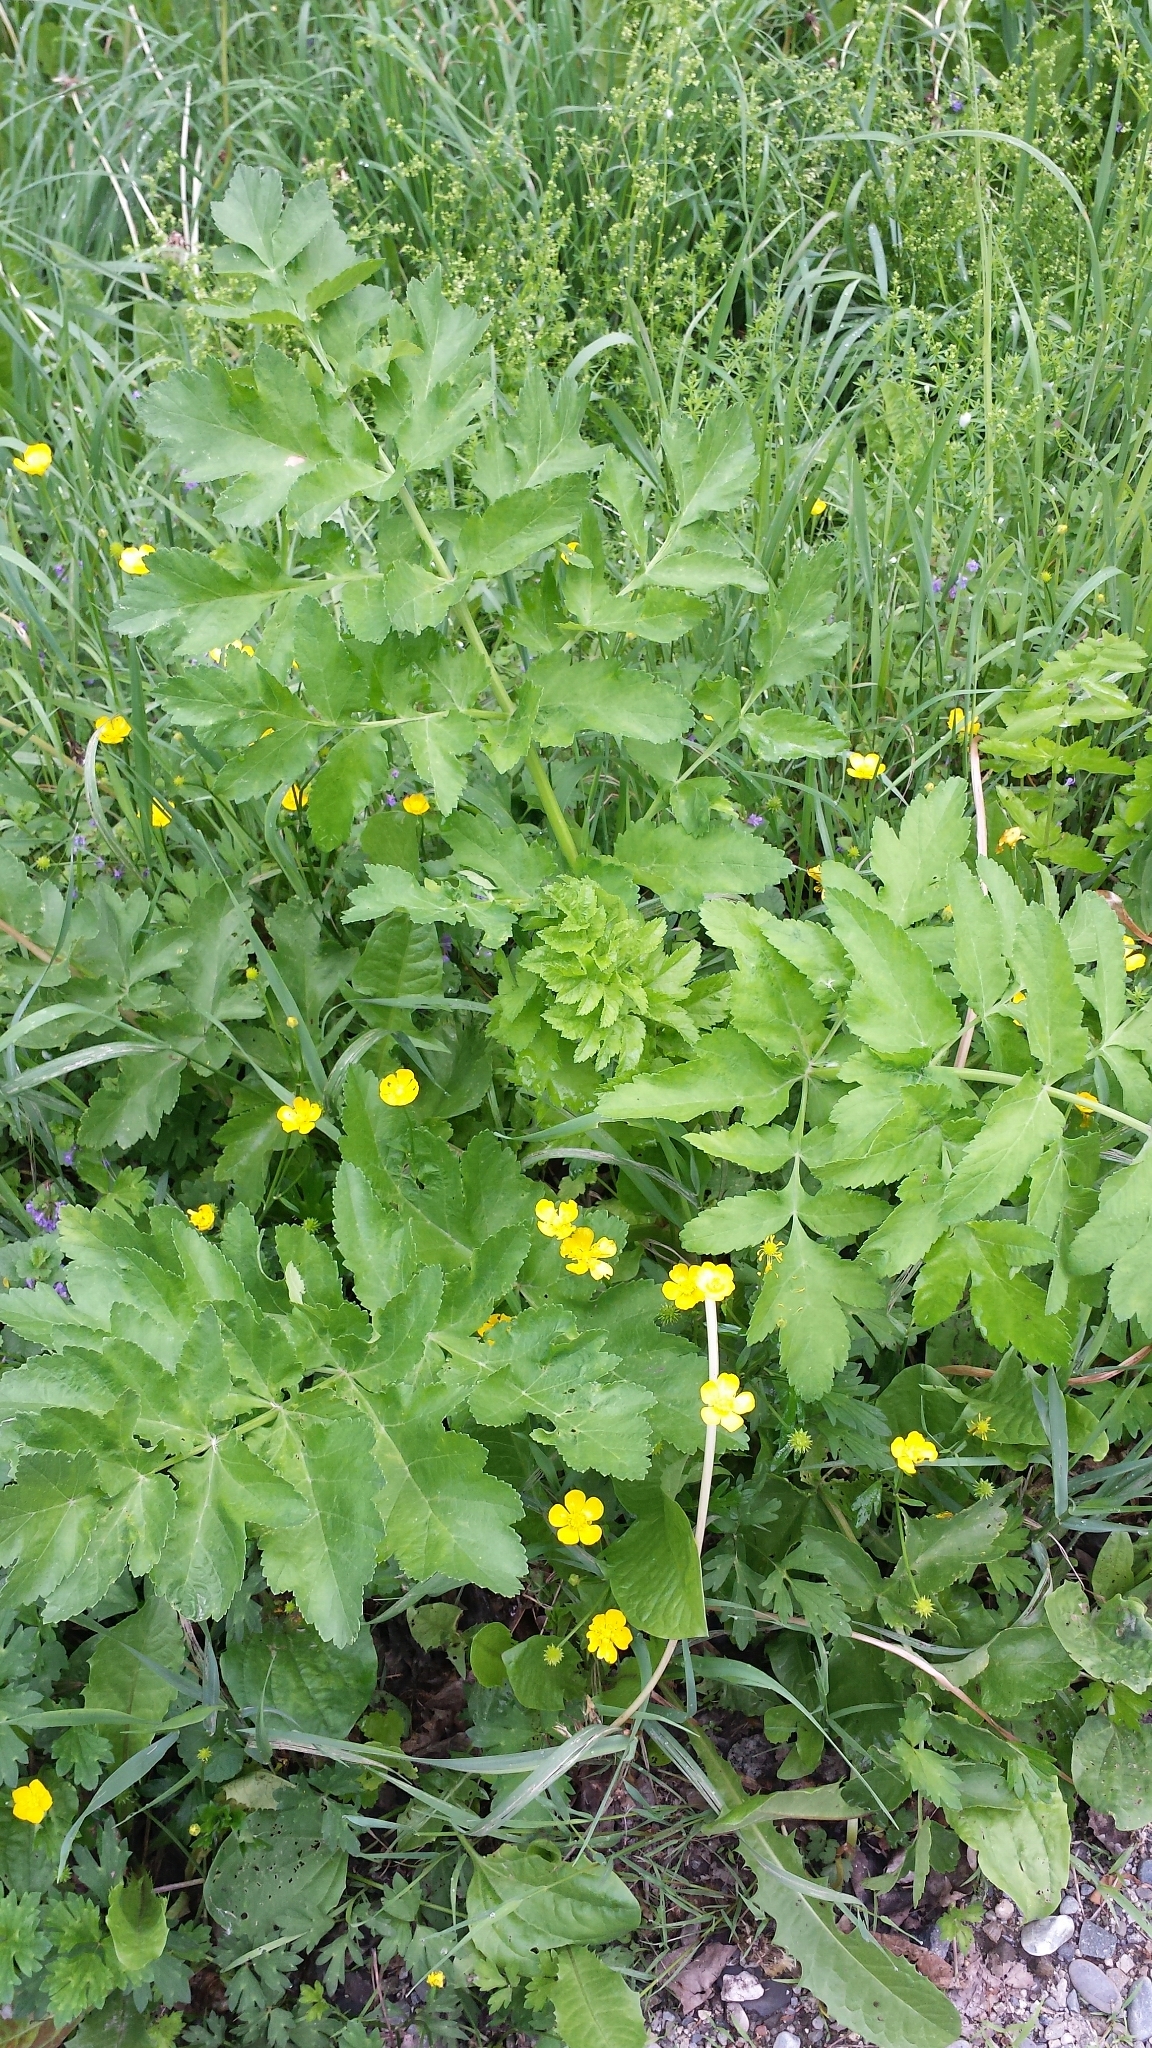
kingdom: Plantae
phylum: Tracheophyta
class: Magnoliopsida
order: Apiales
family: Apiaceae
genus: Pastinaca
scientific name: Pastinaca sativa
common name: Wild parsnip
